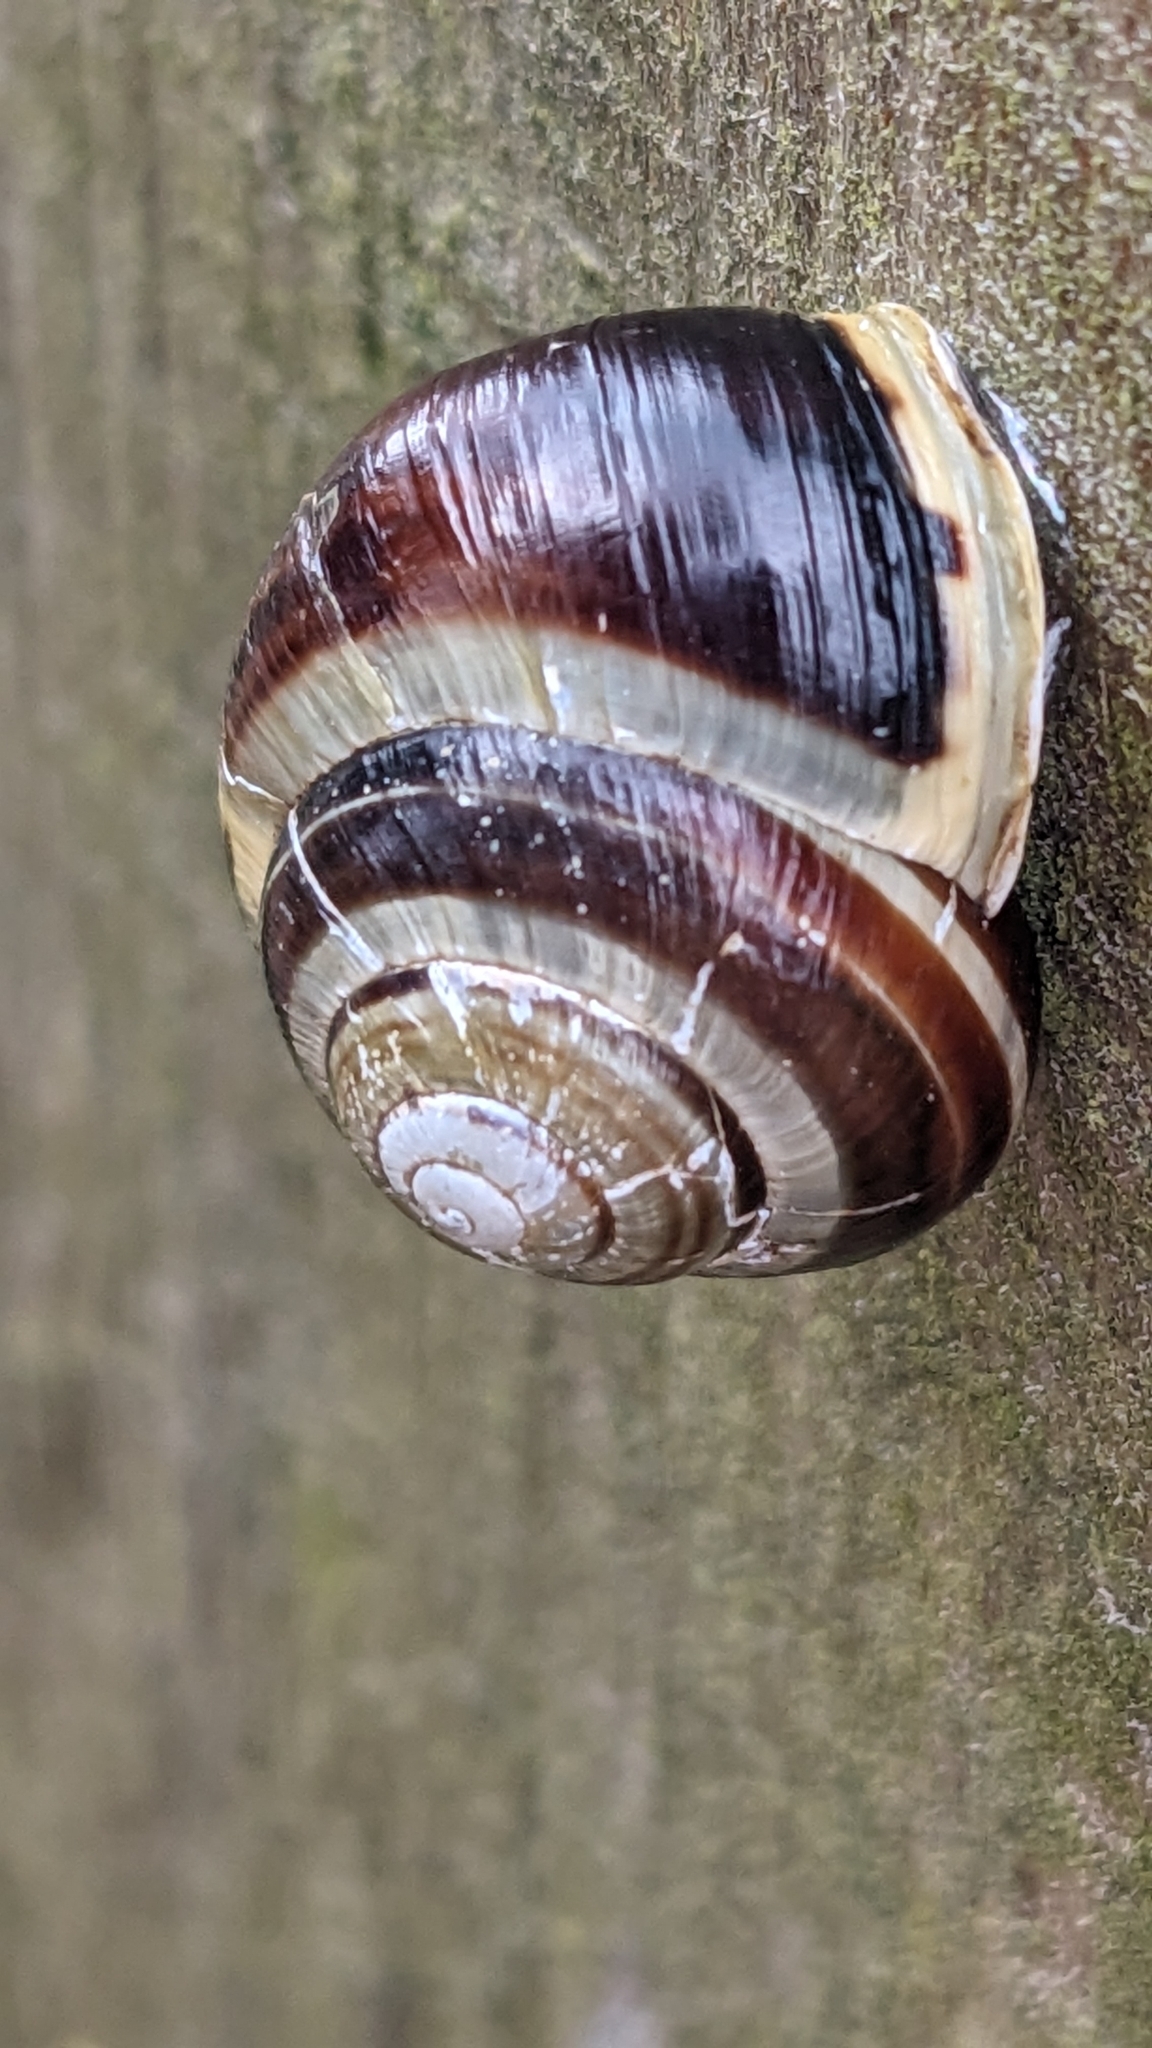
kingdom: Animalia
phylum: Mollusca
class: Gastropoda
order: Stylommatophora
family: Helicidae
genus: Cepaea
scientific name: Cepaea hortensis
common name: White-lip gardensnail
